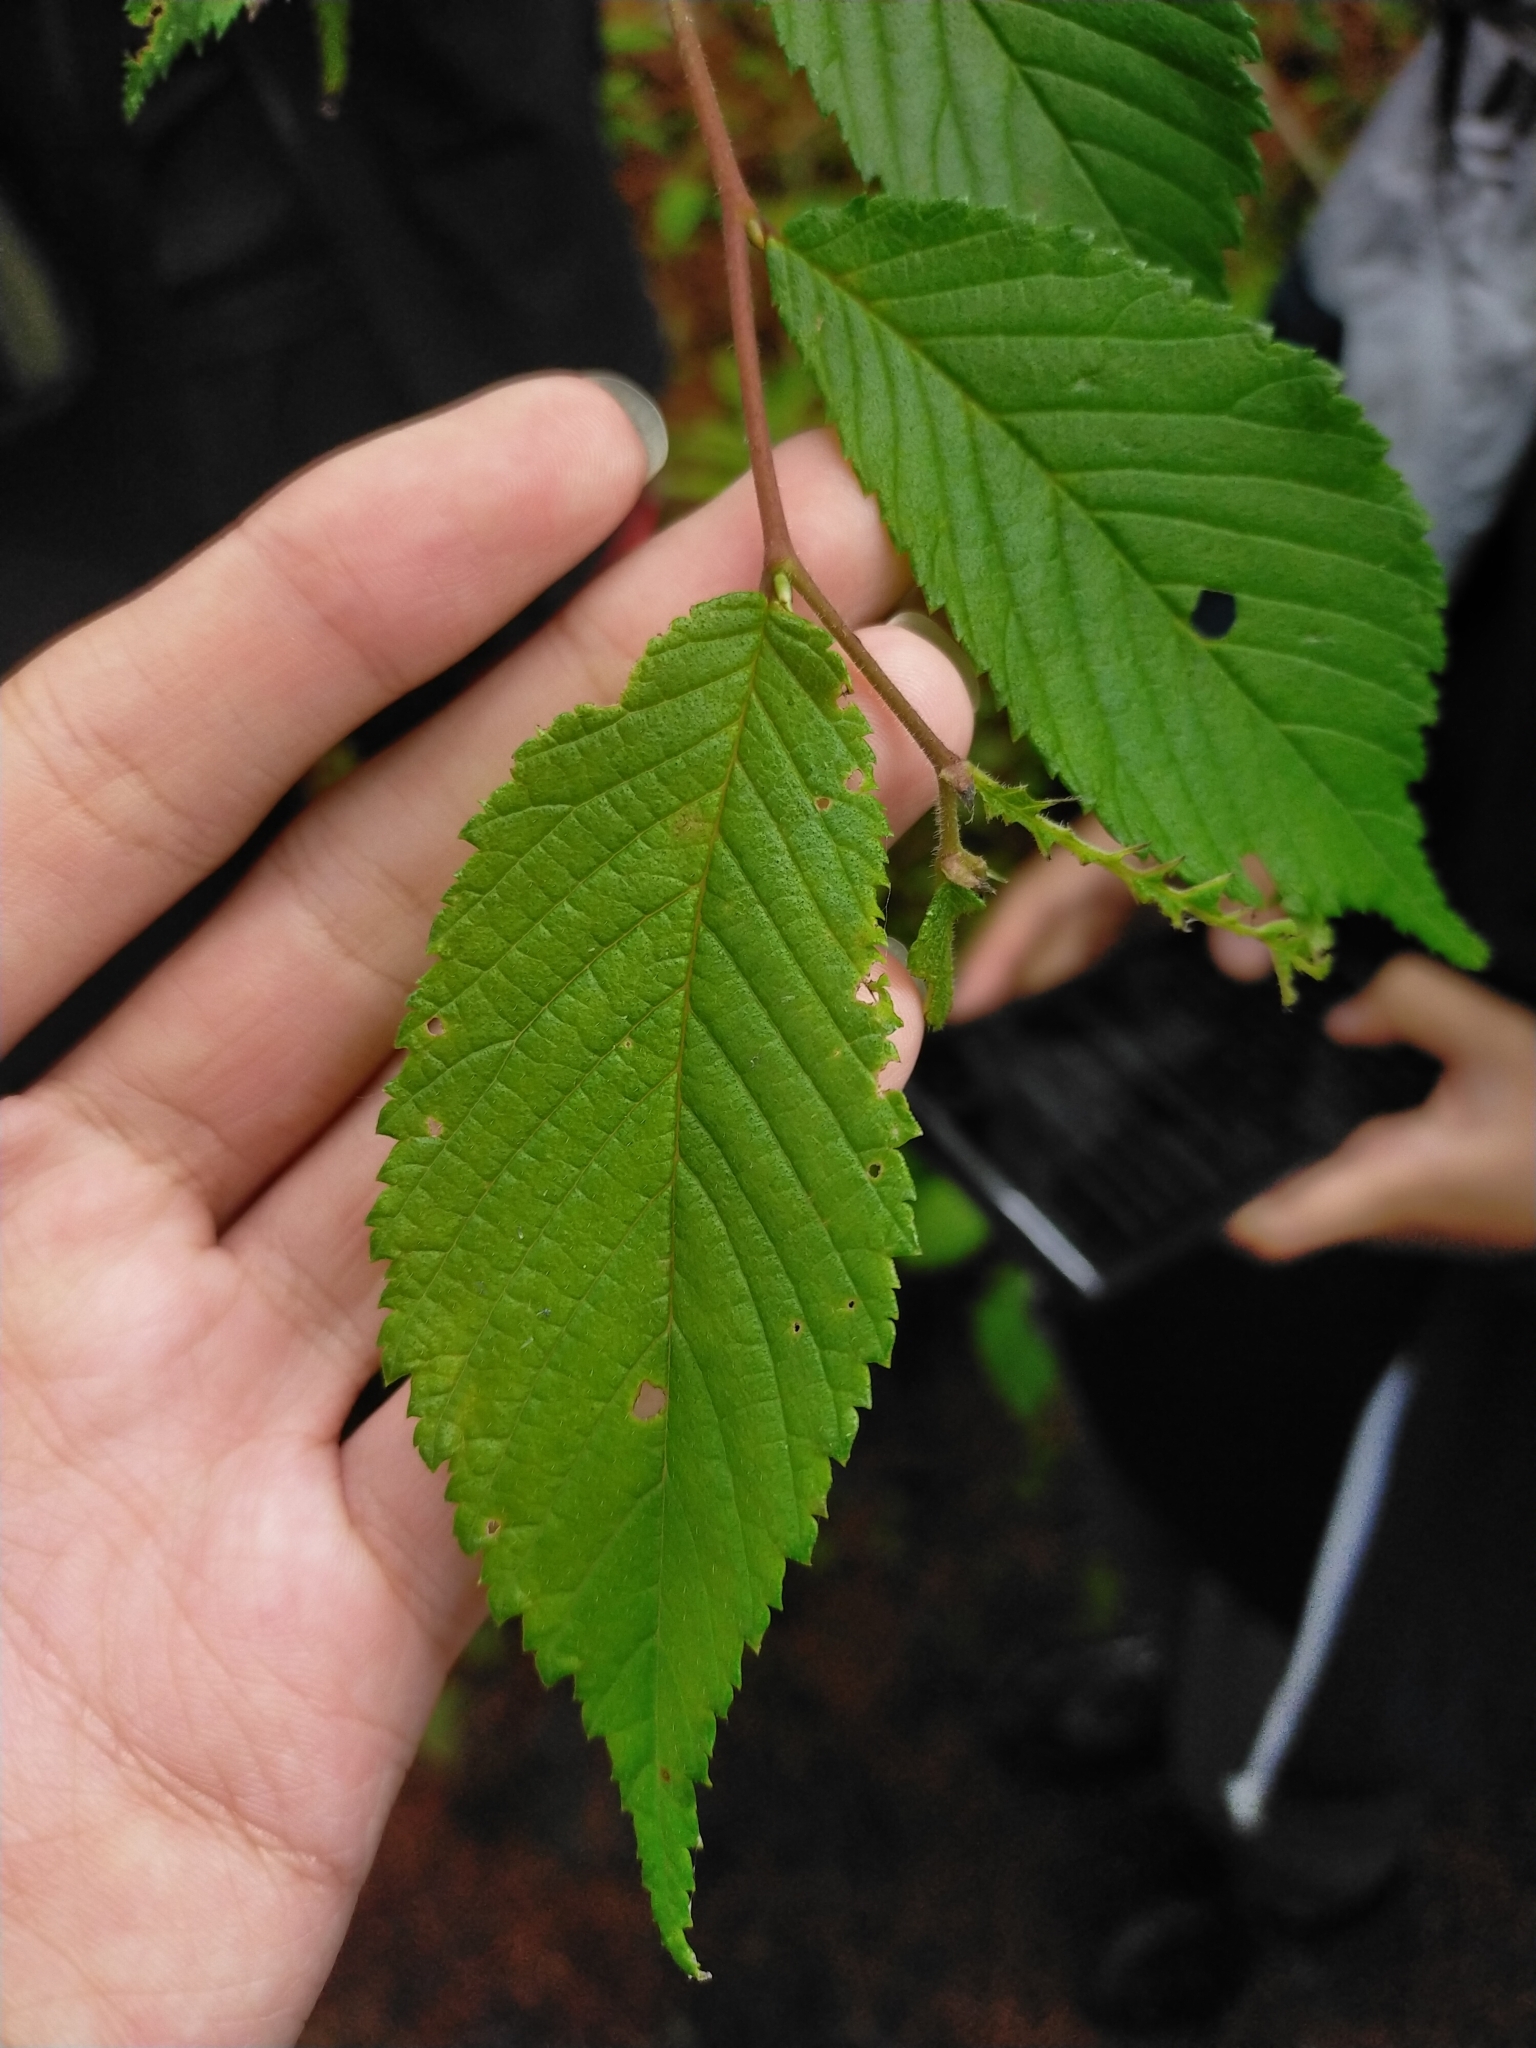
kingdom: Plantae
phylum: Tracheophyta
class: Magnoliopsida
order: Fagales
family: Betulaceae
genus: Alnus
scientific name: Alnus formosana
